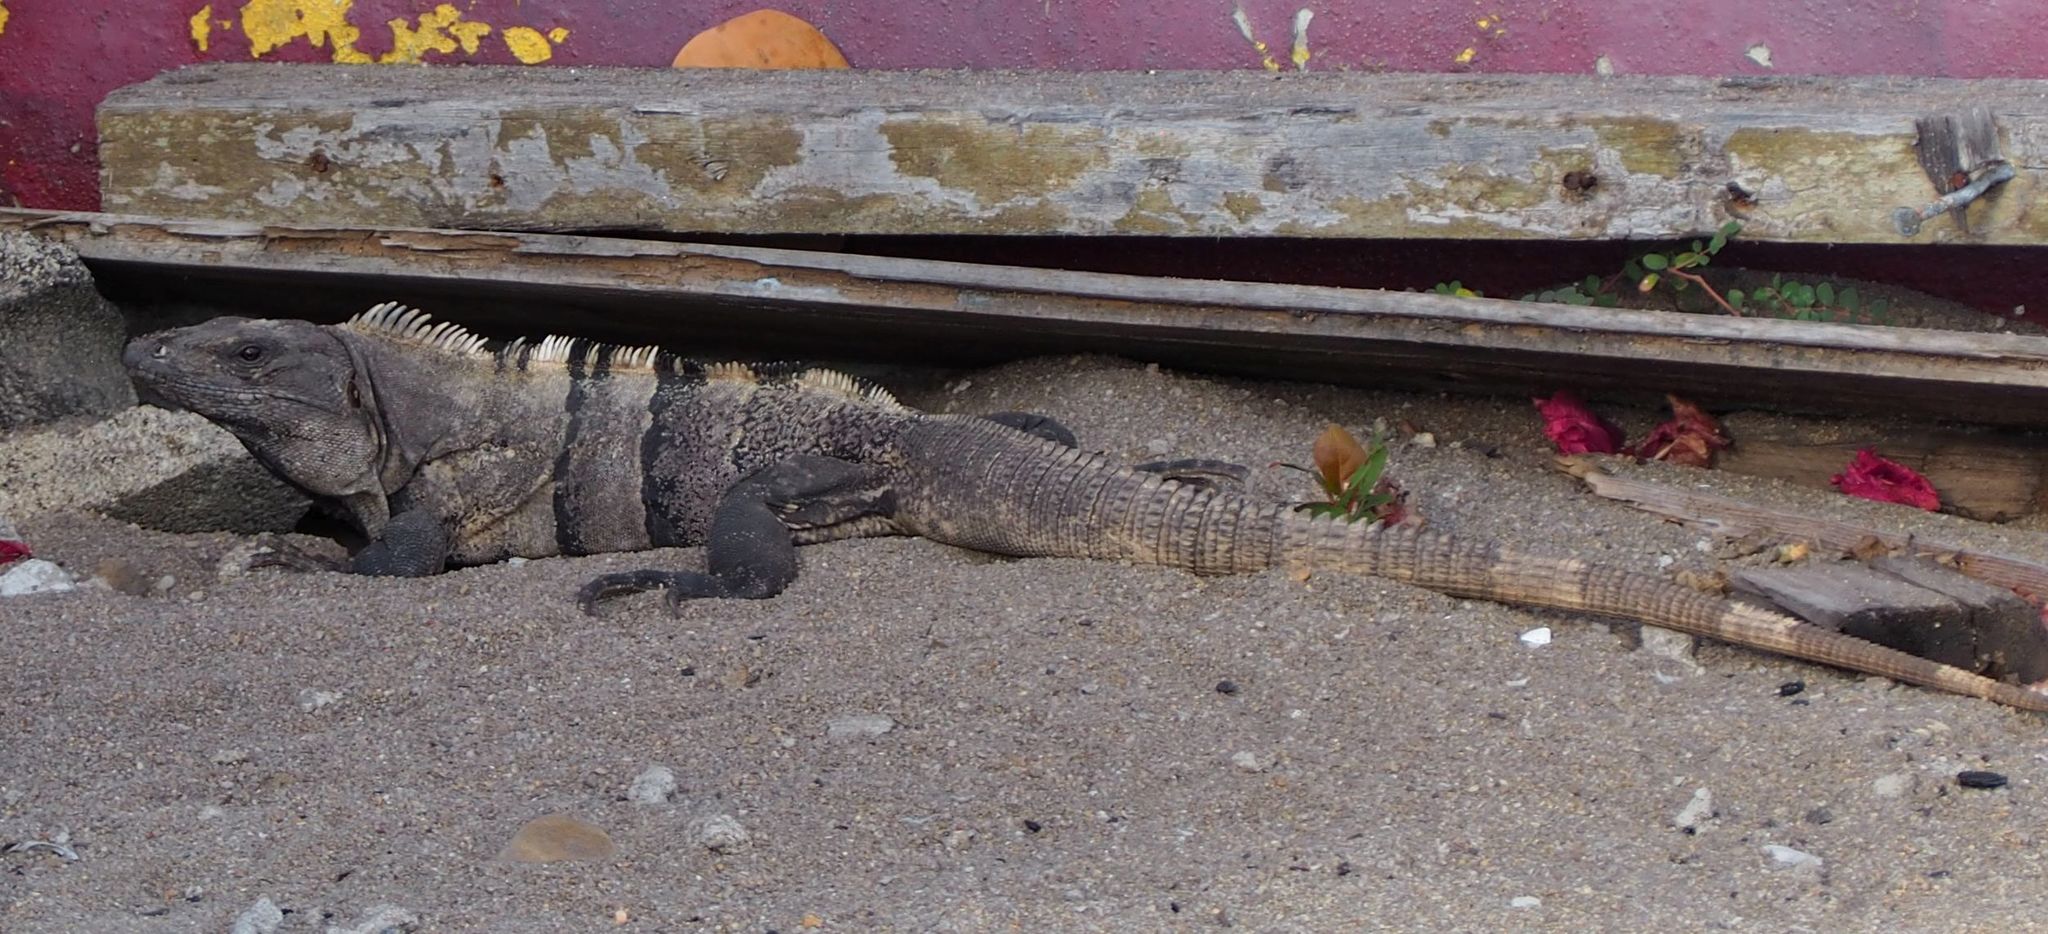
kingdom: Animalia
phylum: Chordata
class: Squamata
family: Iguanidae
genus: Ctenosaura
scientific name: Ctenosaura similis
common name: Black spiny-tailed iguana
